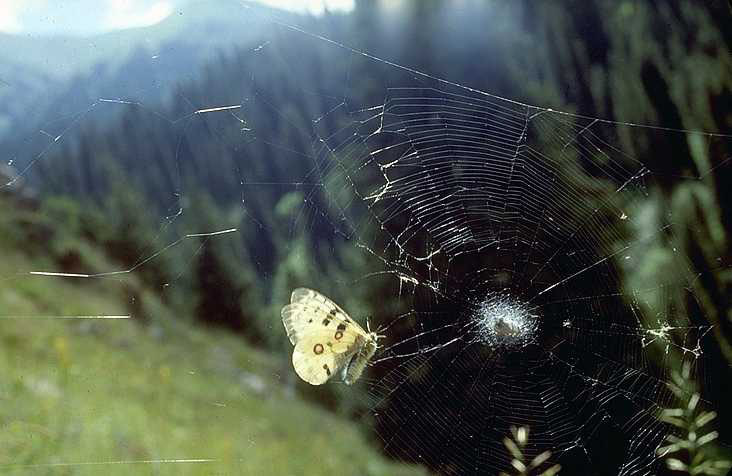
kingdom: Animalia
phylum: Arthropoda
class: Insecta
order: Lepidoptera
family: Papilionidae
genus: Parnassius
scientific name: Parnassius apollo
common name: Apollo
